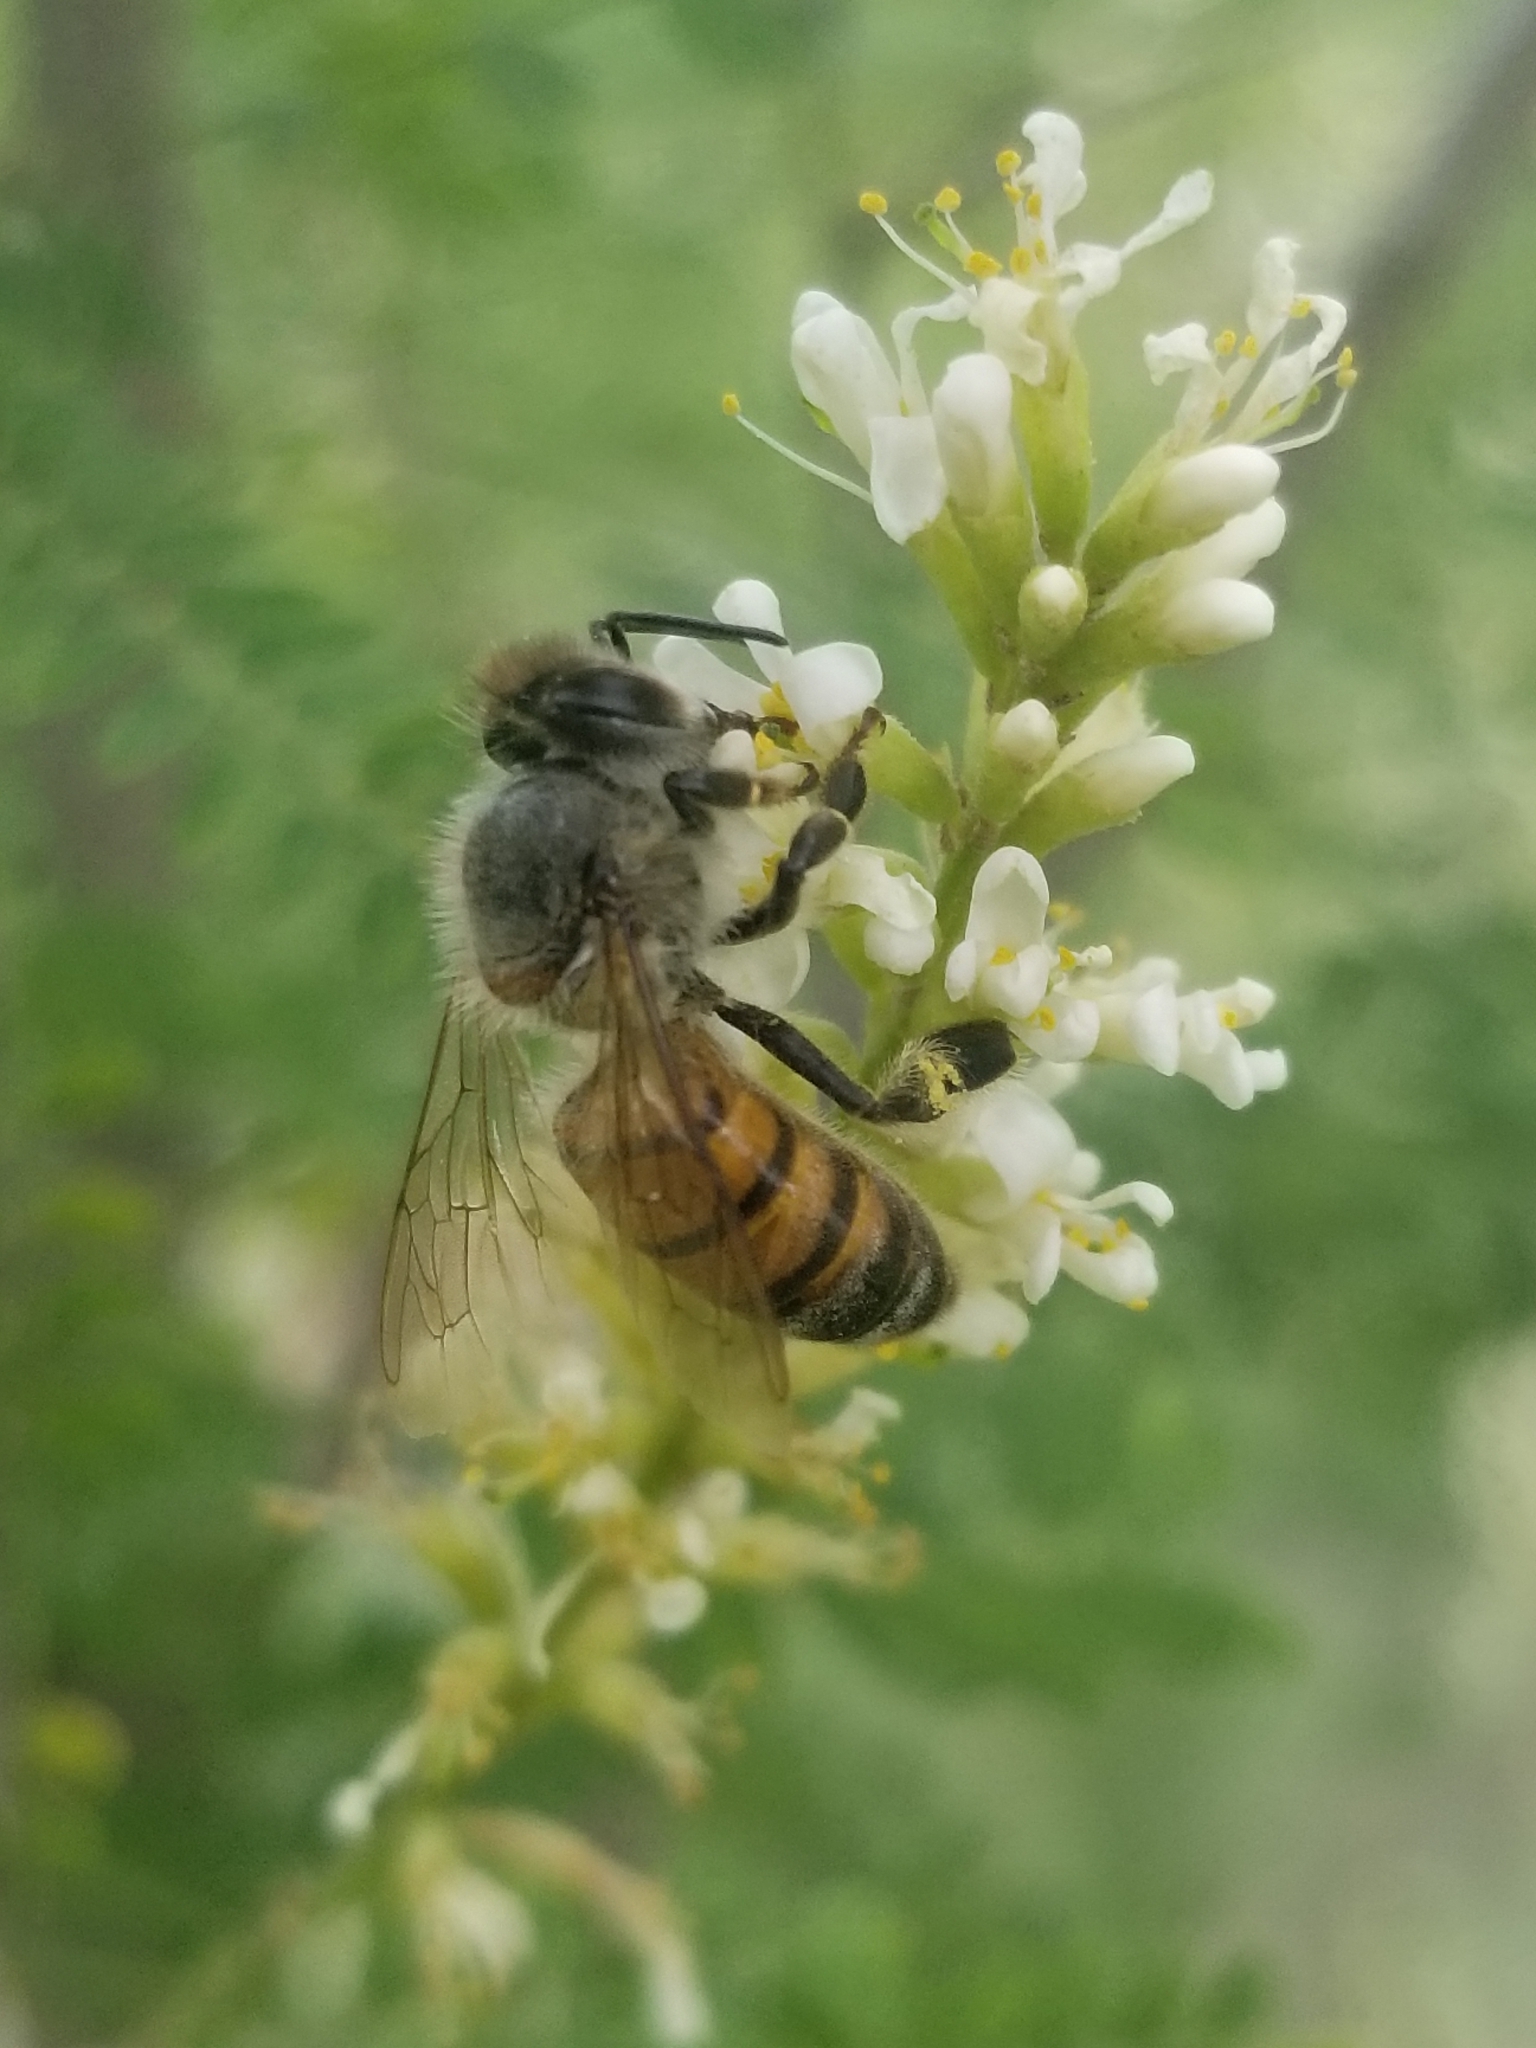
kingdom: Animalia
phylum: Arthropoda
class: Insecta
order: Hymenoptera
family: Apidae
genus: Apis
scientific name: Apis mellifera
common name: Honey bee
